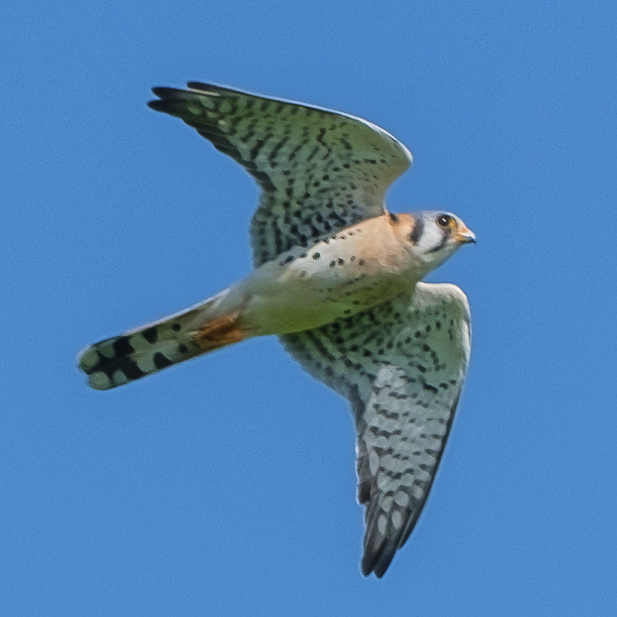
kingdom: Animalia
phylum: Chordata
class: Aves
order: Falconiformes
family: Falconidae
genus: Falco
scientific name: Falco sparverius
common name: American kestrel
